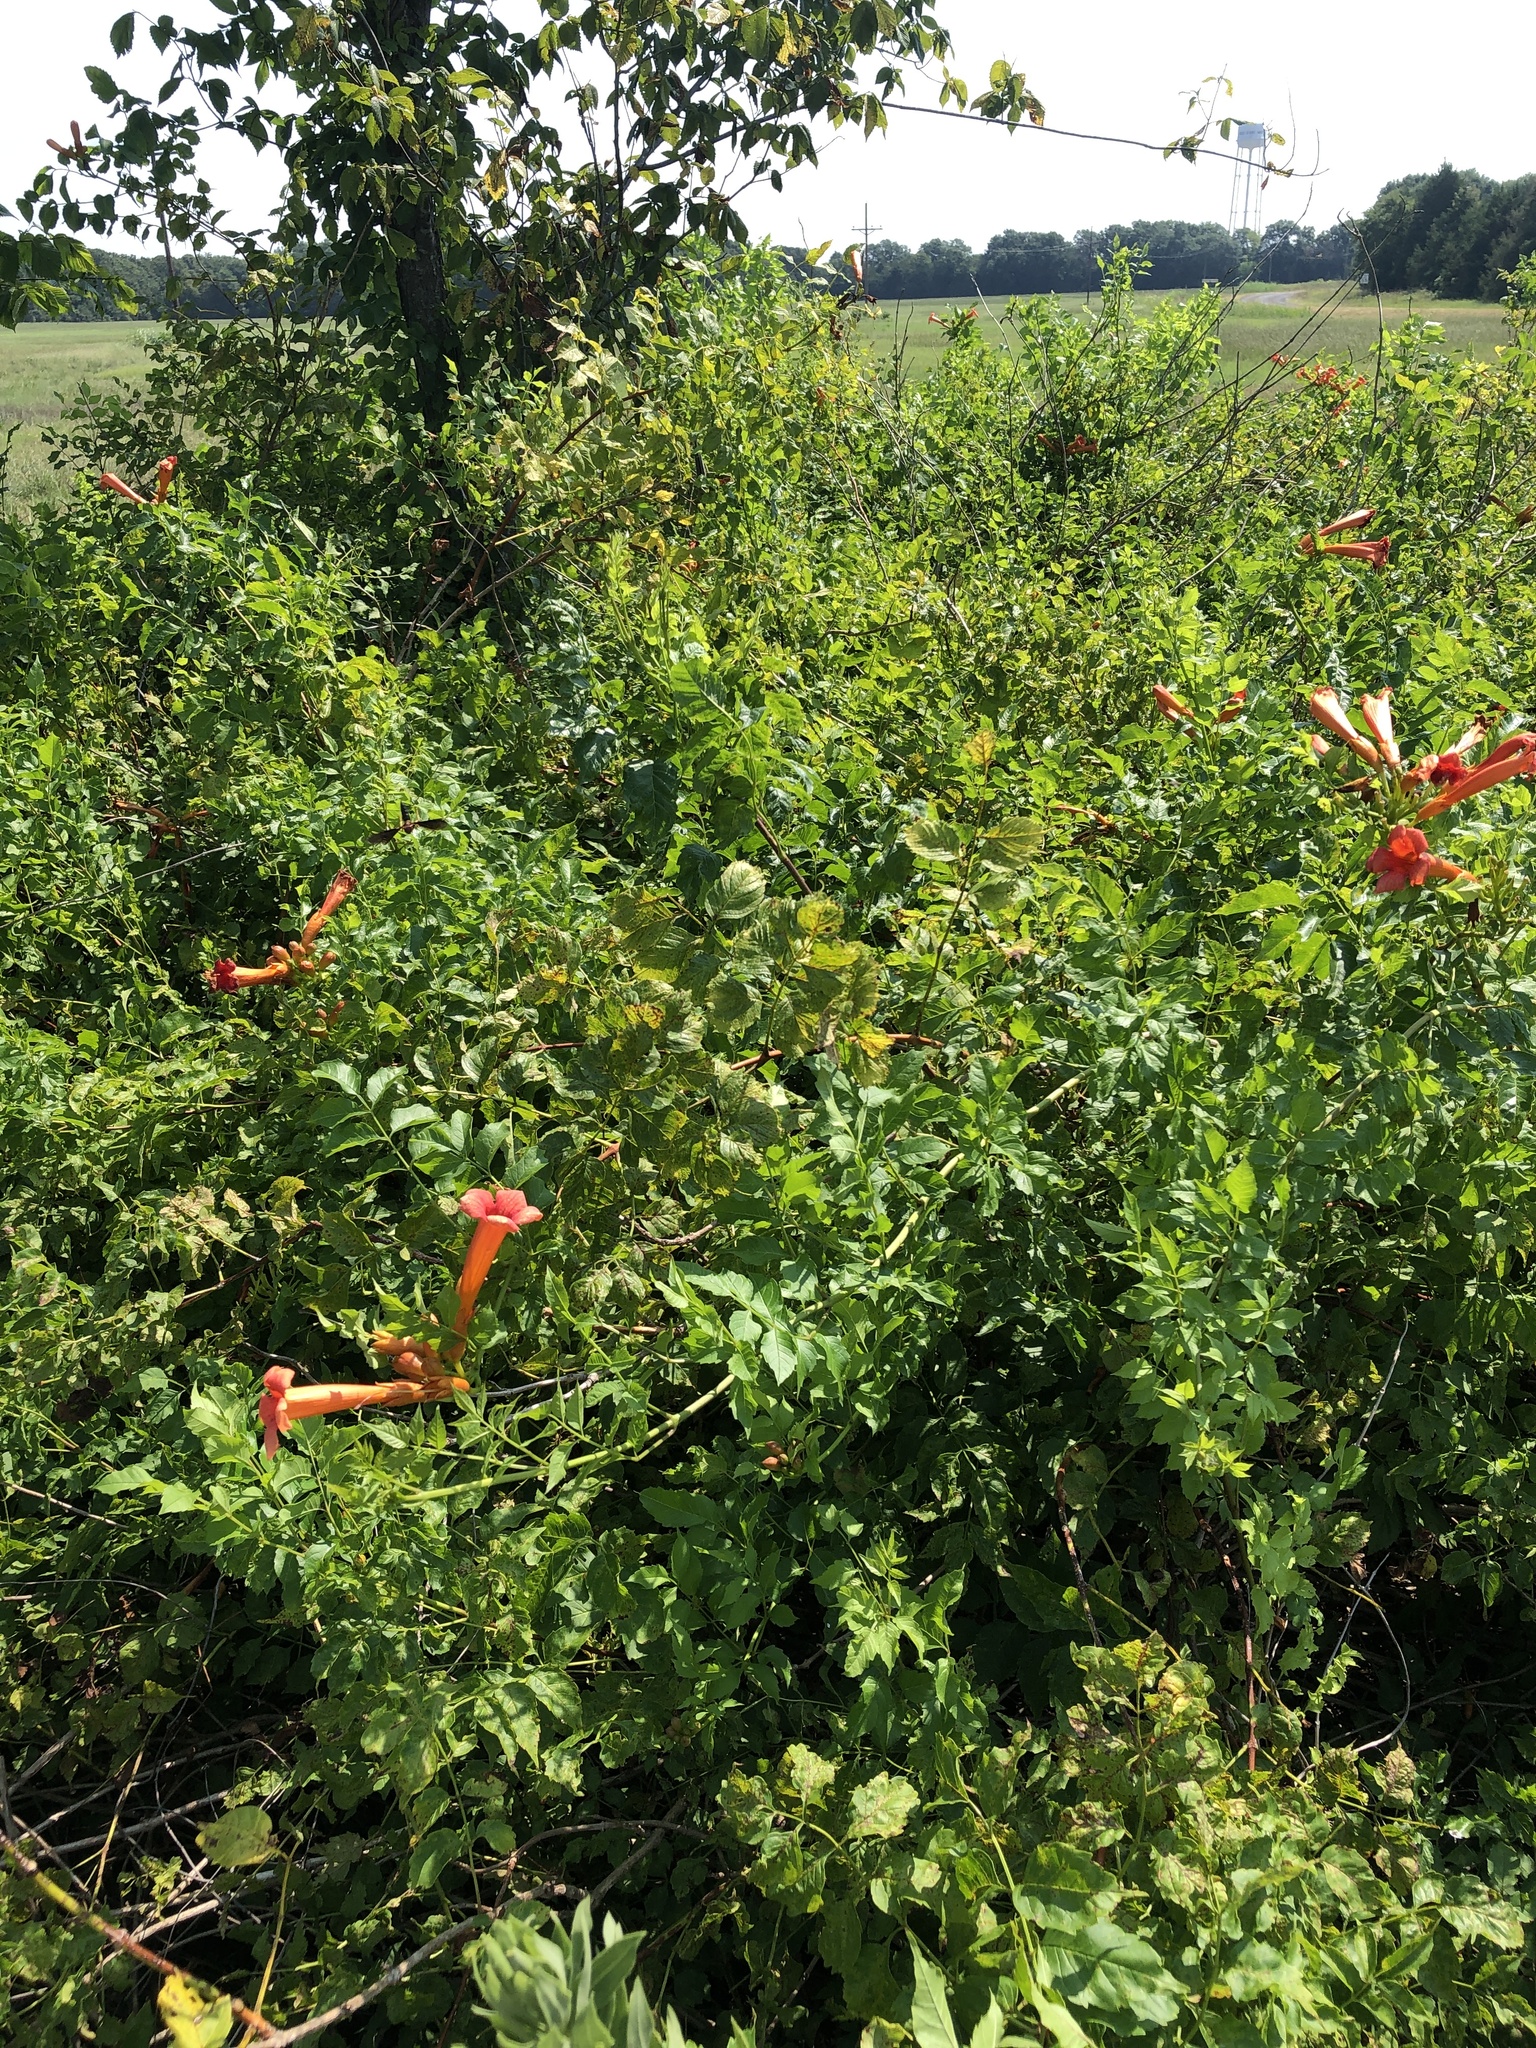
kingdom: Plantae
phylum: Tracheophyta
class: Magnoliopsida
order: Lamiales
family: Bignoniaceae
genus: Campsis
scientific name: Campsis radicans
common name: Trumpet-creeper
